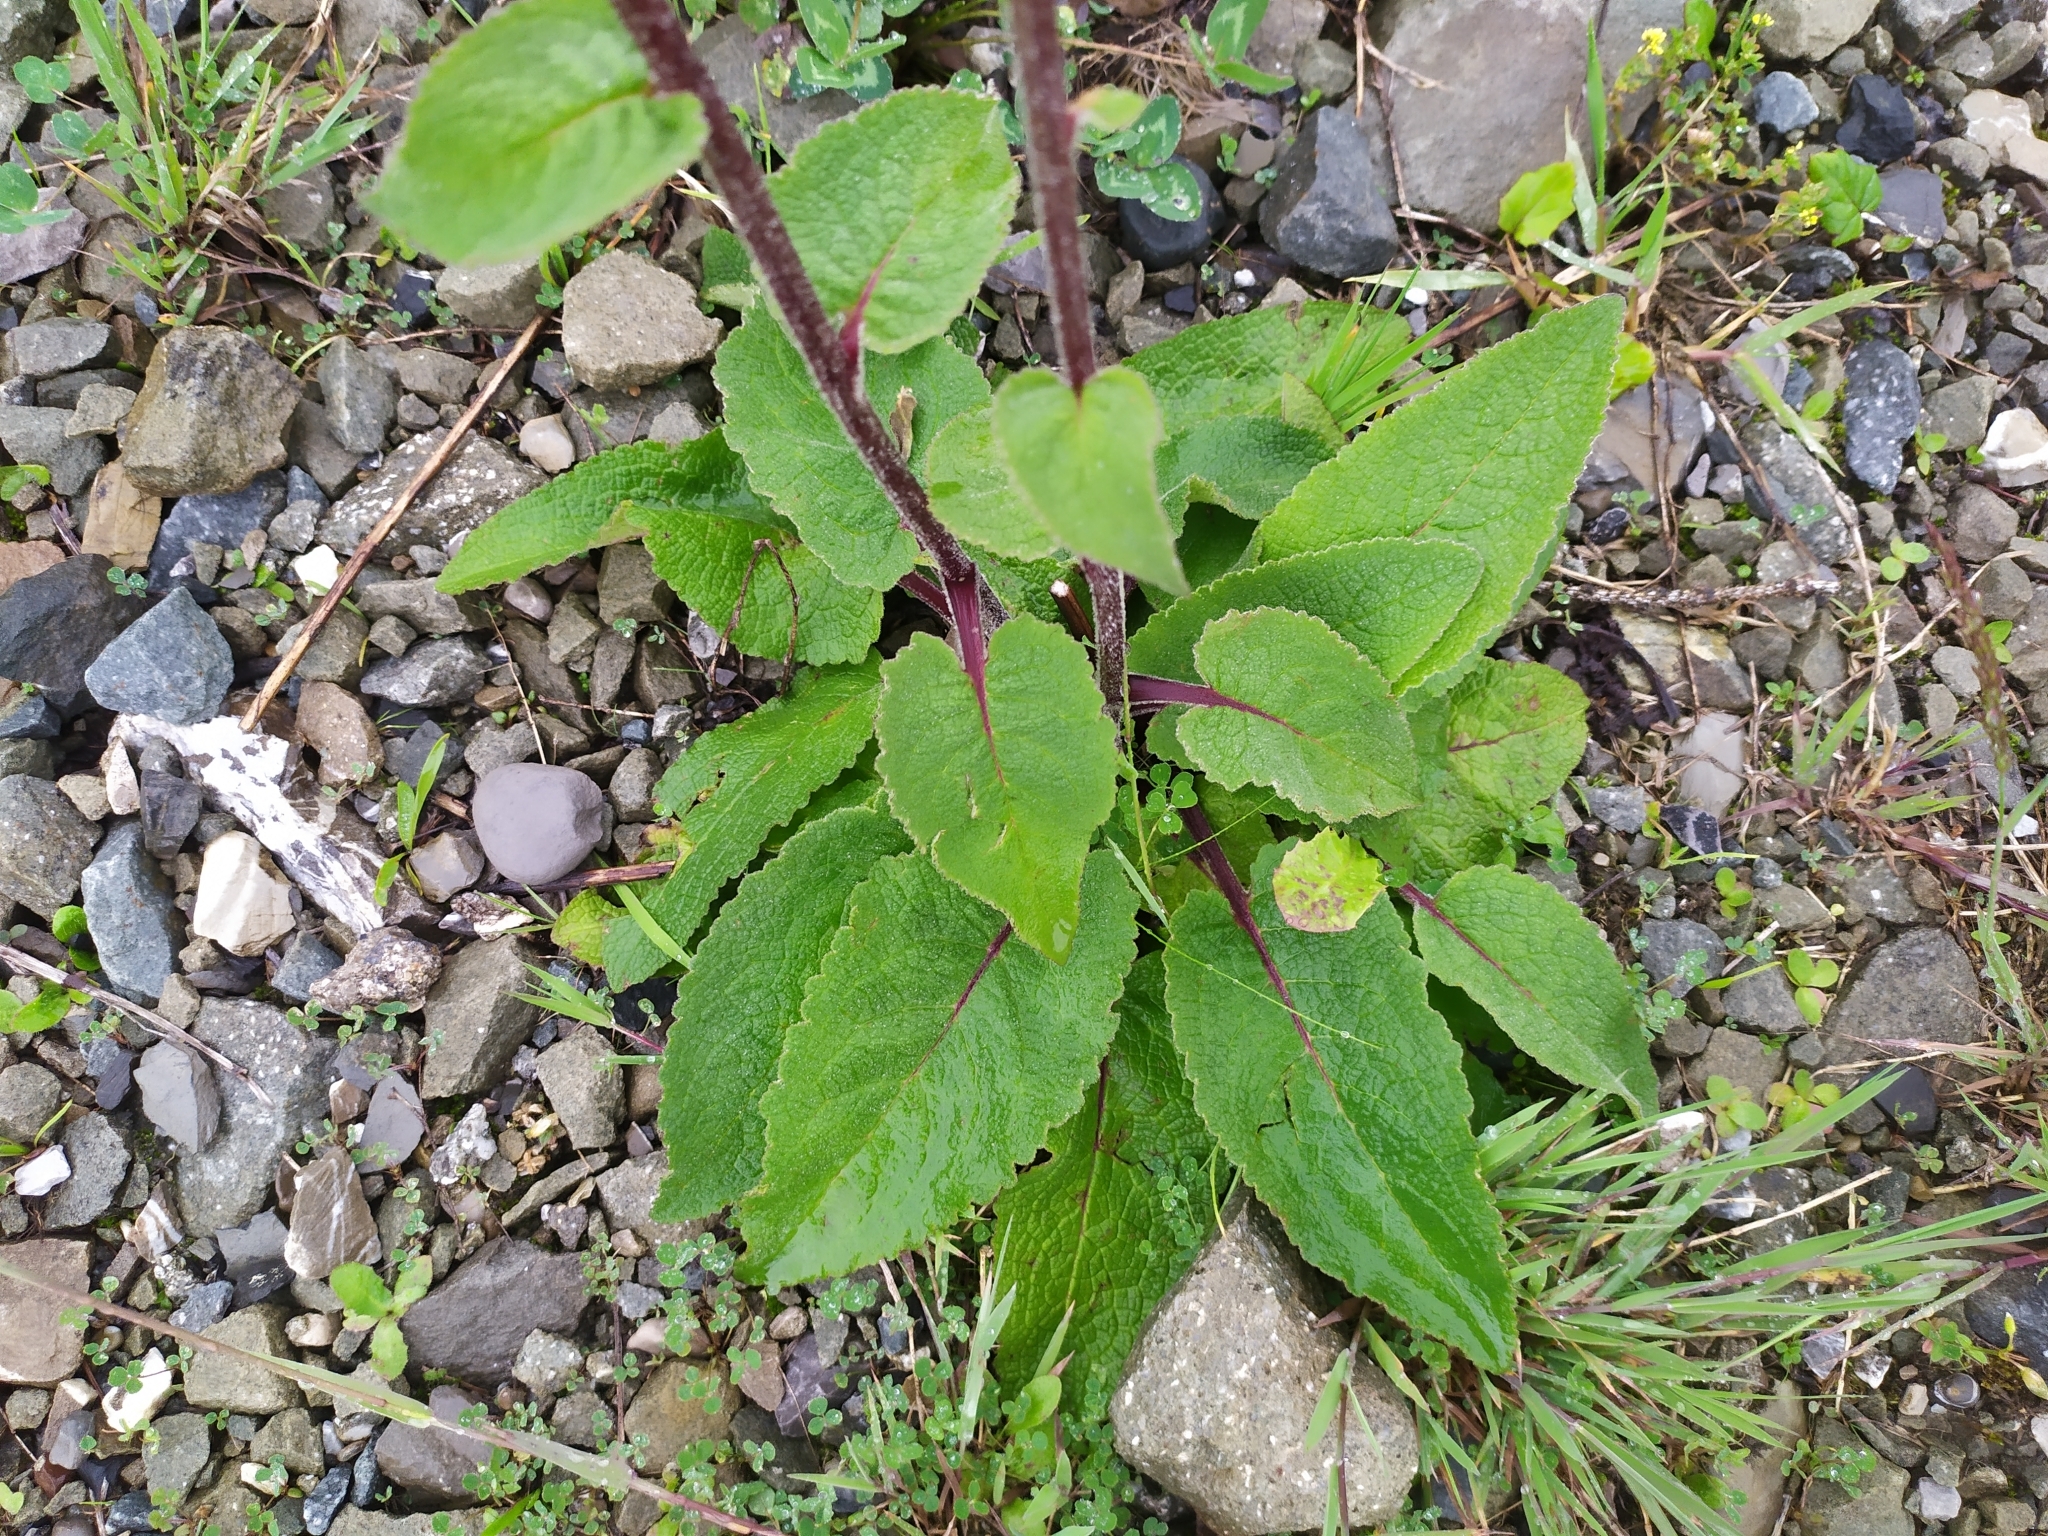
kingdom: Plantae
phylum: Tracheophyta
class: Magnoliopsida
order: Lamiales
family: Scrophulariaceae
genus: Verbascum
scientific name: Verbascum nigrum
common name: Dark mullein
